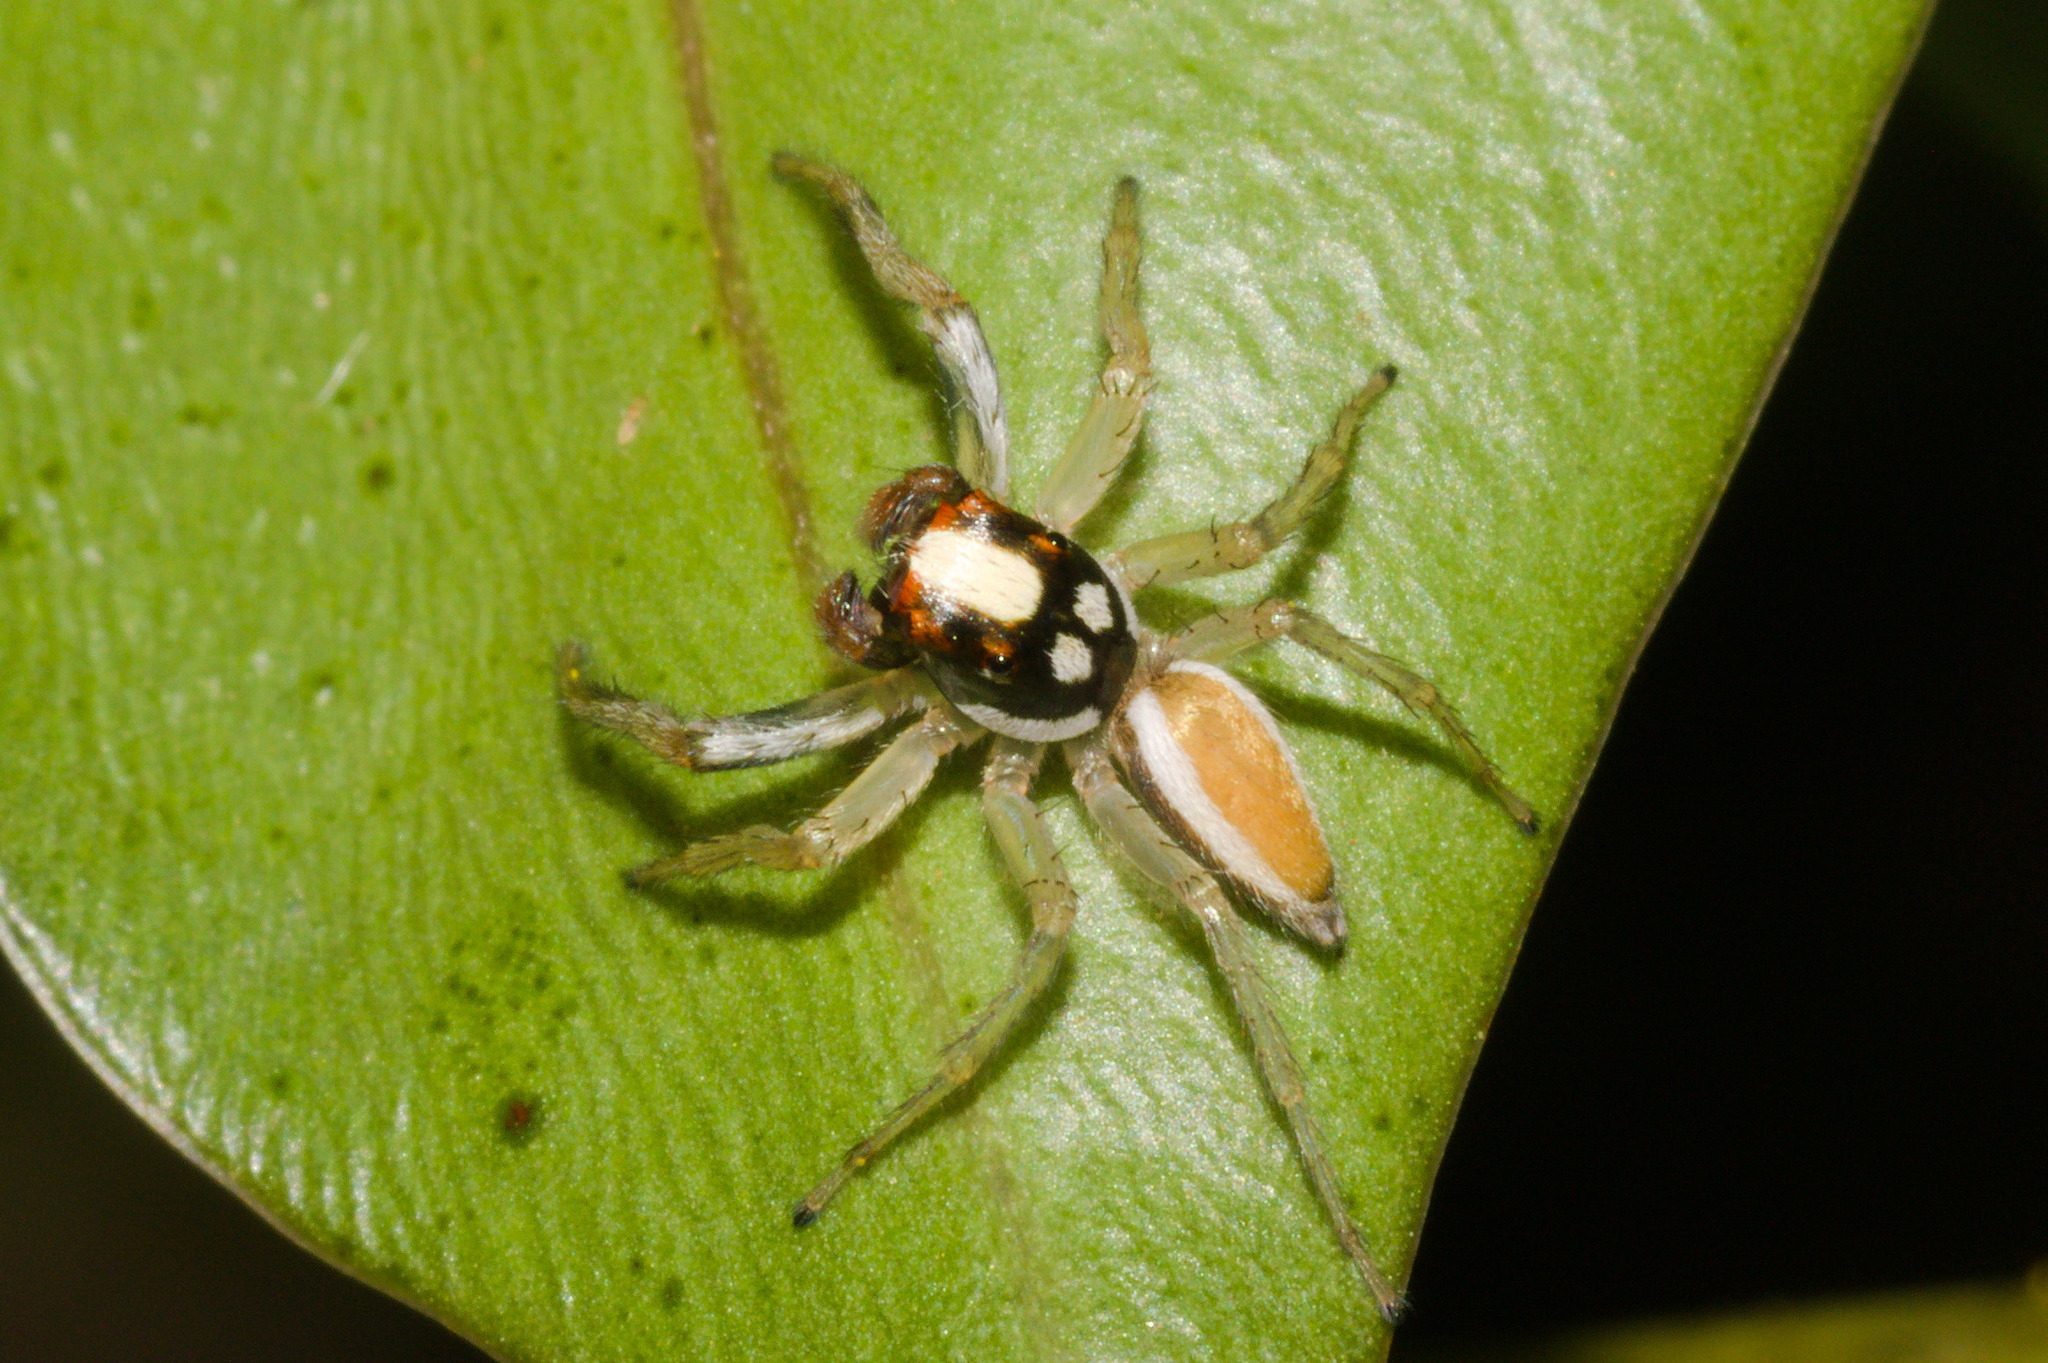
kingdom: Animalia
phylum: Arthropoda
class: Arachnida
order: Araneae
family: Salticidae
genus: Chira
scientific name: Chira spinosa
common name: Jumping spiders
